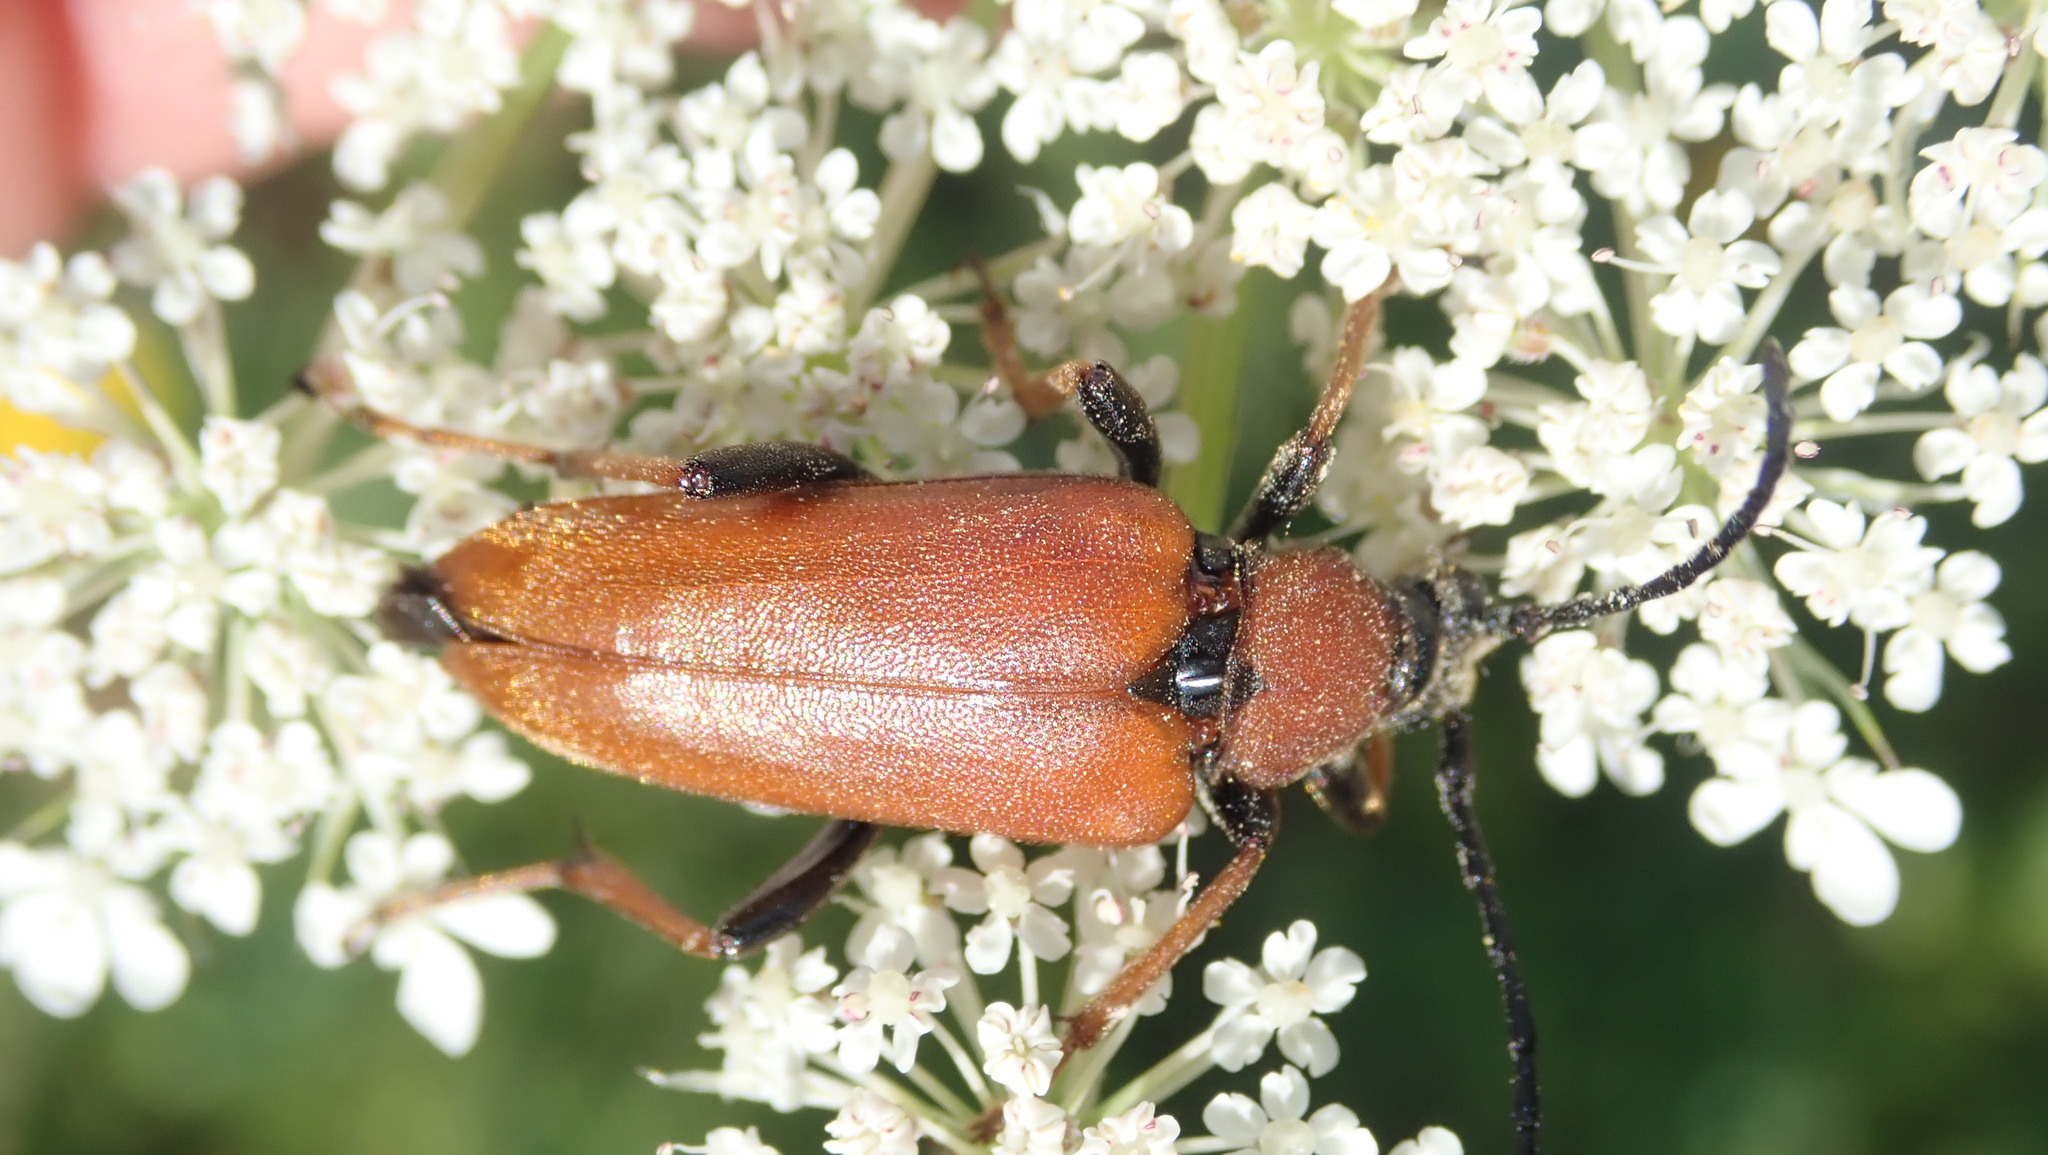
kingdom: Animalia
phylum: Arthropoda
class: Insecta
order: Coleoptera
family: Cerambycidae
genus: Stictoleptura
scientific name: Stictoleptura rubra
